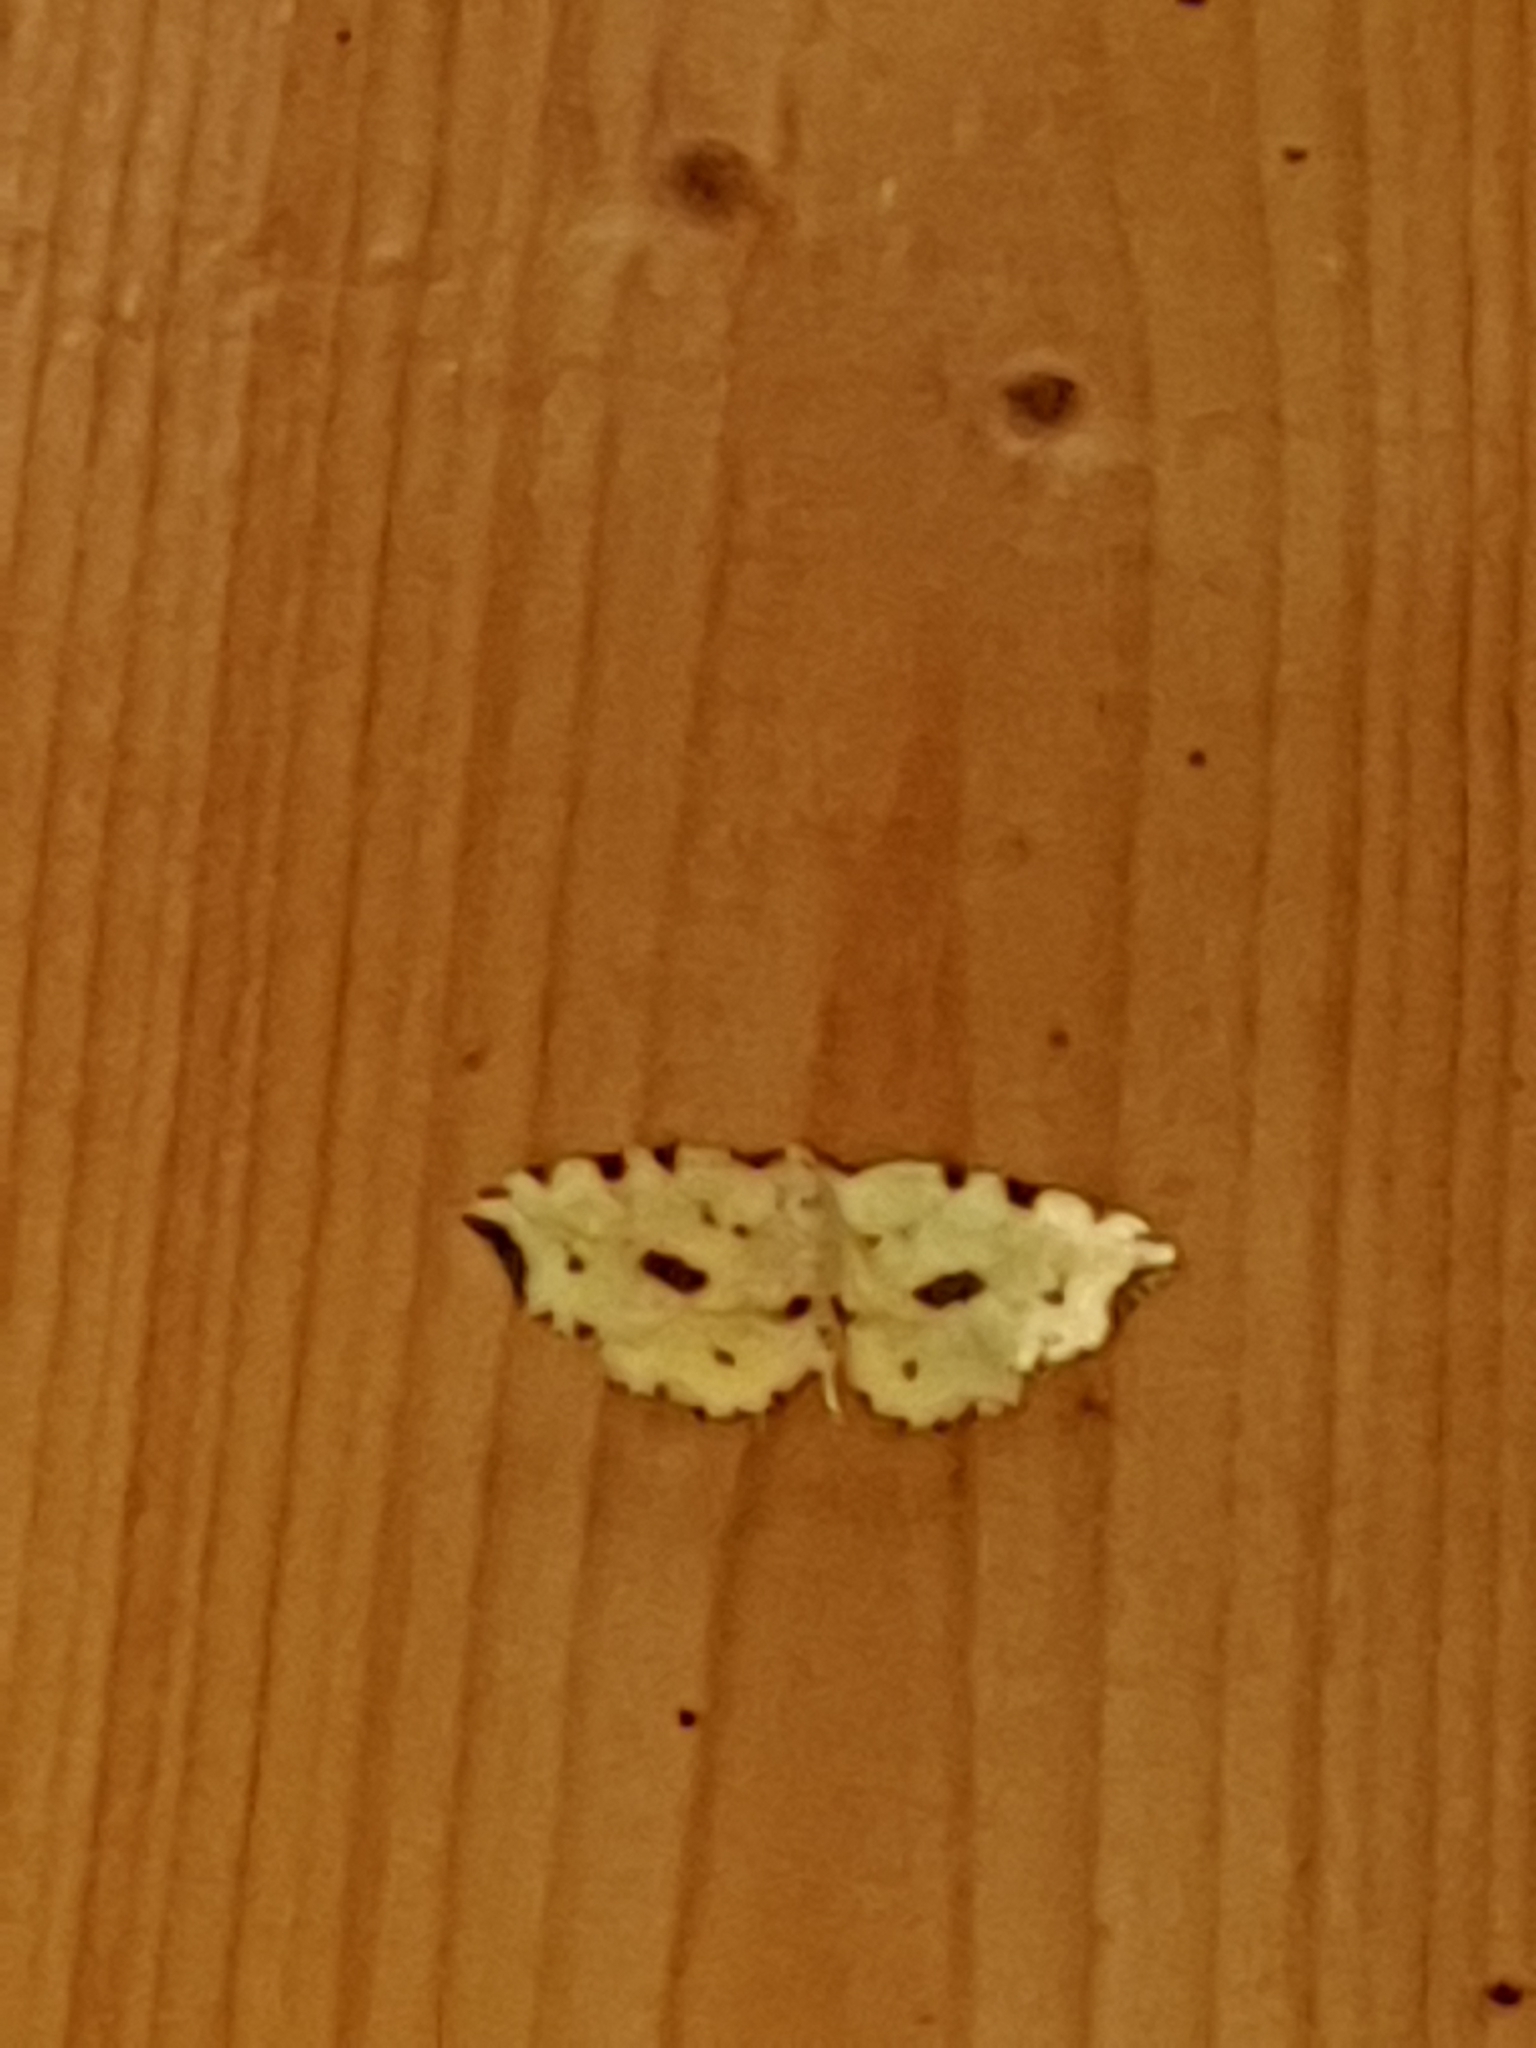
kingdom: Animalia
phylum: Arthropoda
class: Insecta
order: Lepidoptera
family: Geometridae
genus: Therapis
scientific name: Therapis flavicaria
